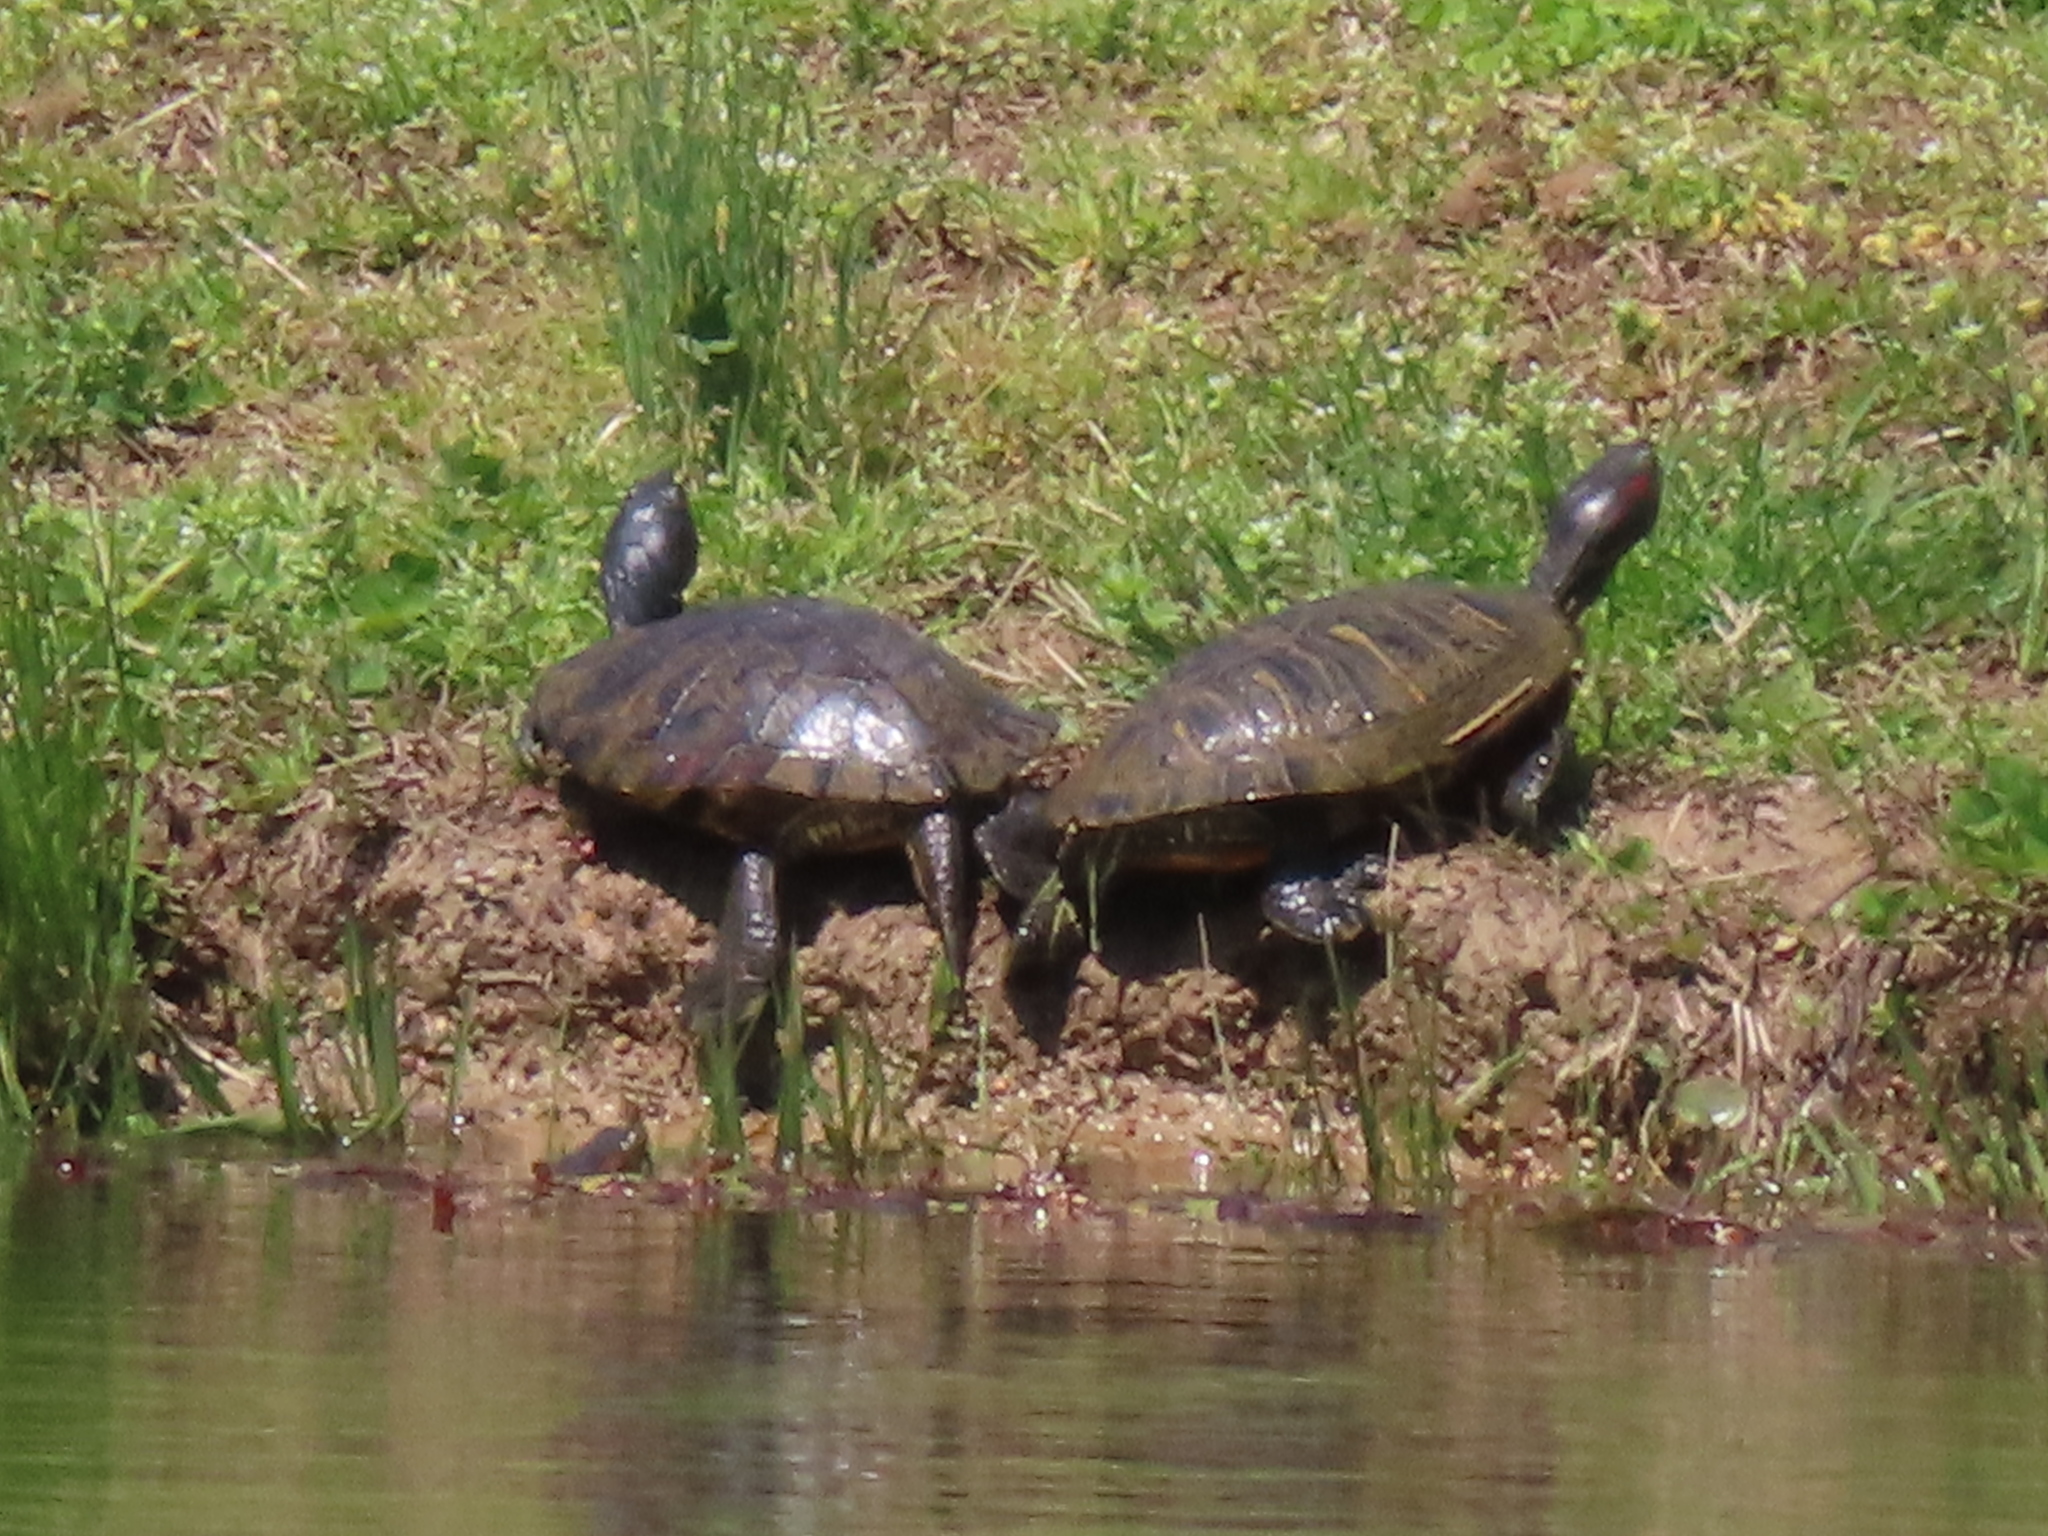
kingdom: Animalia
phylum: Chordata
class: Testudines
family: Emydidae
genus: Trachemys
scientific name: Trachemys scripta
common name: Slider
